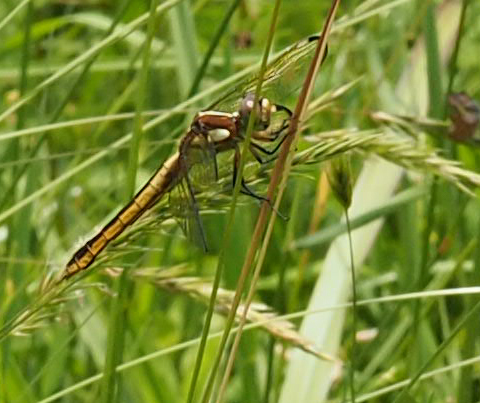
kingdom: Animalia
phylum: Arthropoda
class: Insecta
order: Odonata
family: Libellulidae
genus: Libellula
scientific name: Libellula cyanea
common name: Spangled skimmer
